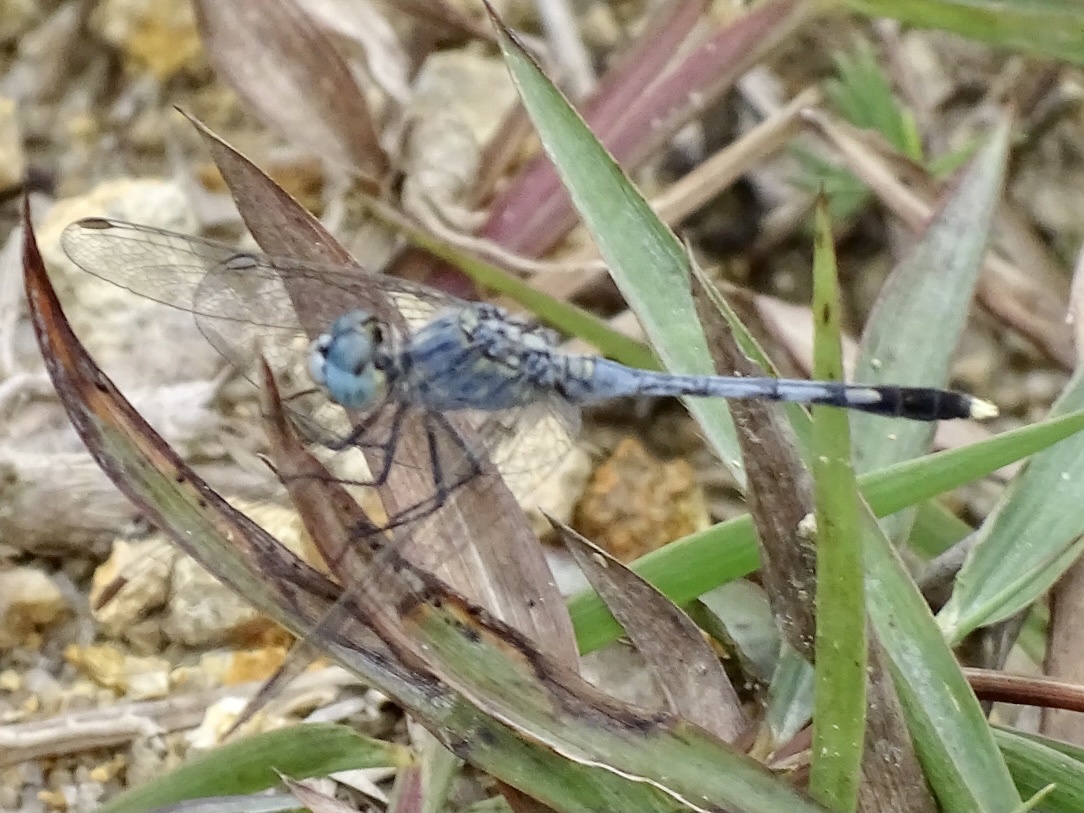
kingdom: Animalia
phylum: Arthropoda
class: Insecta
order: Odonata
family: Libellulidae
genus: Diplacodes
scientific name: Diplacodes trivialis
